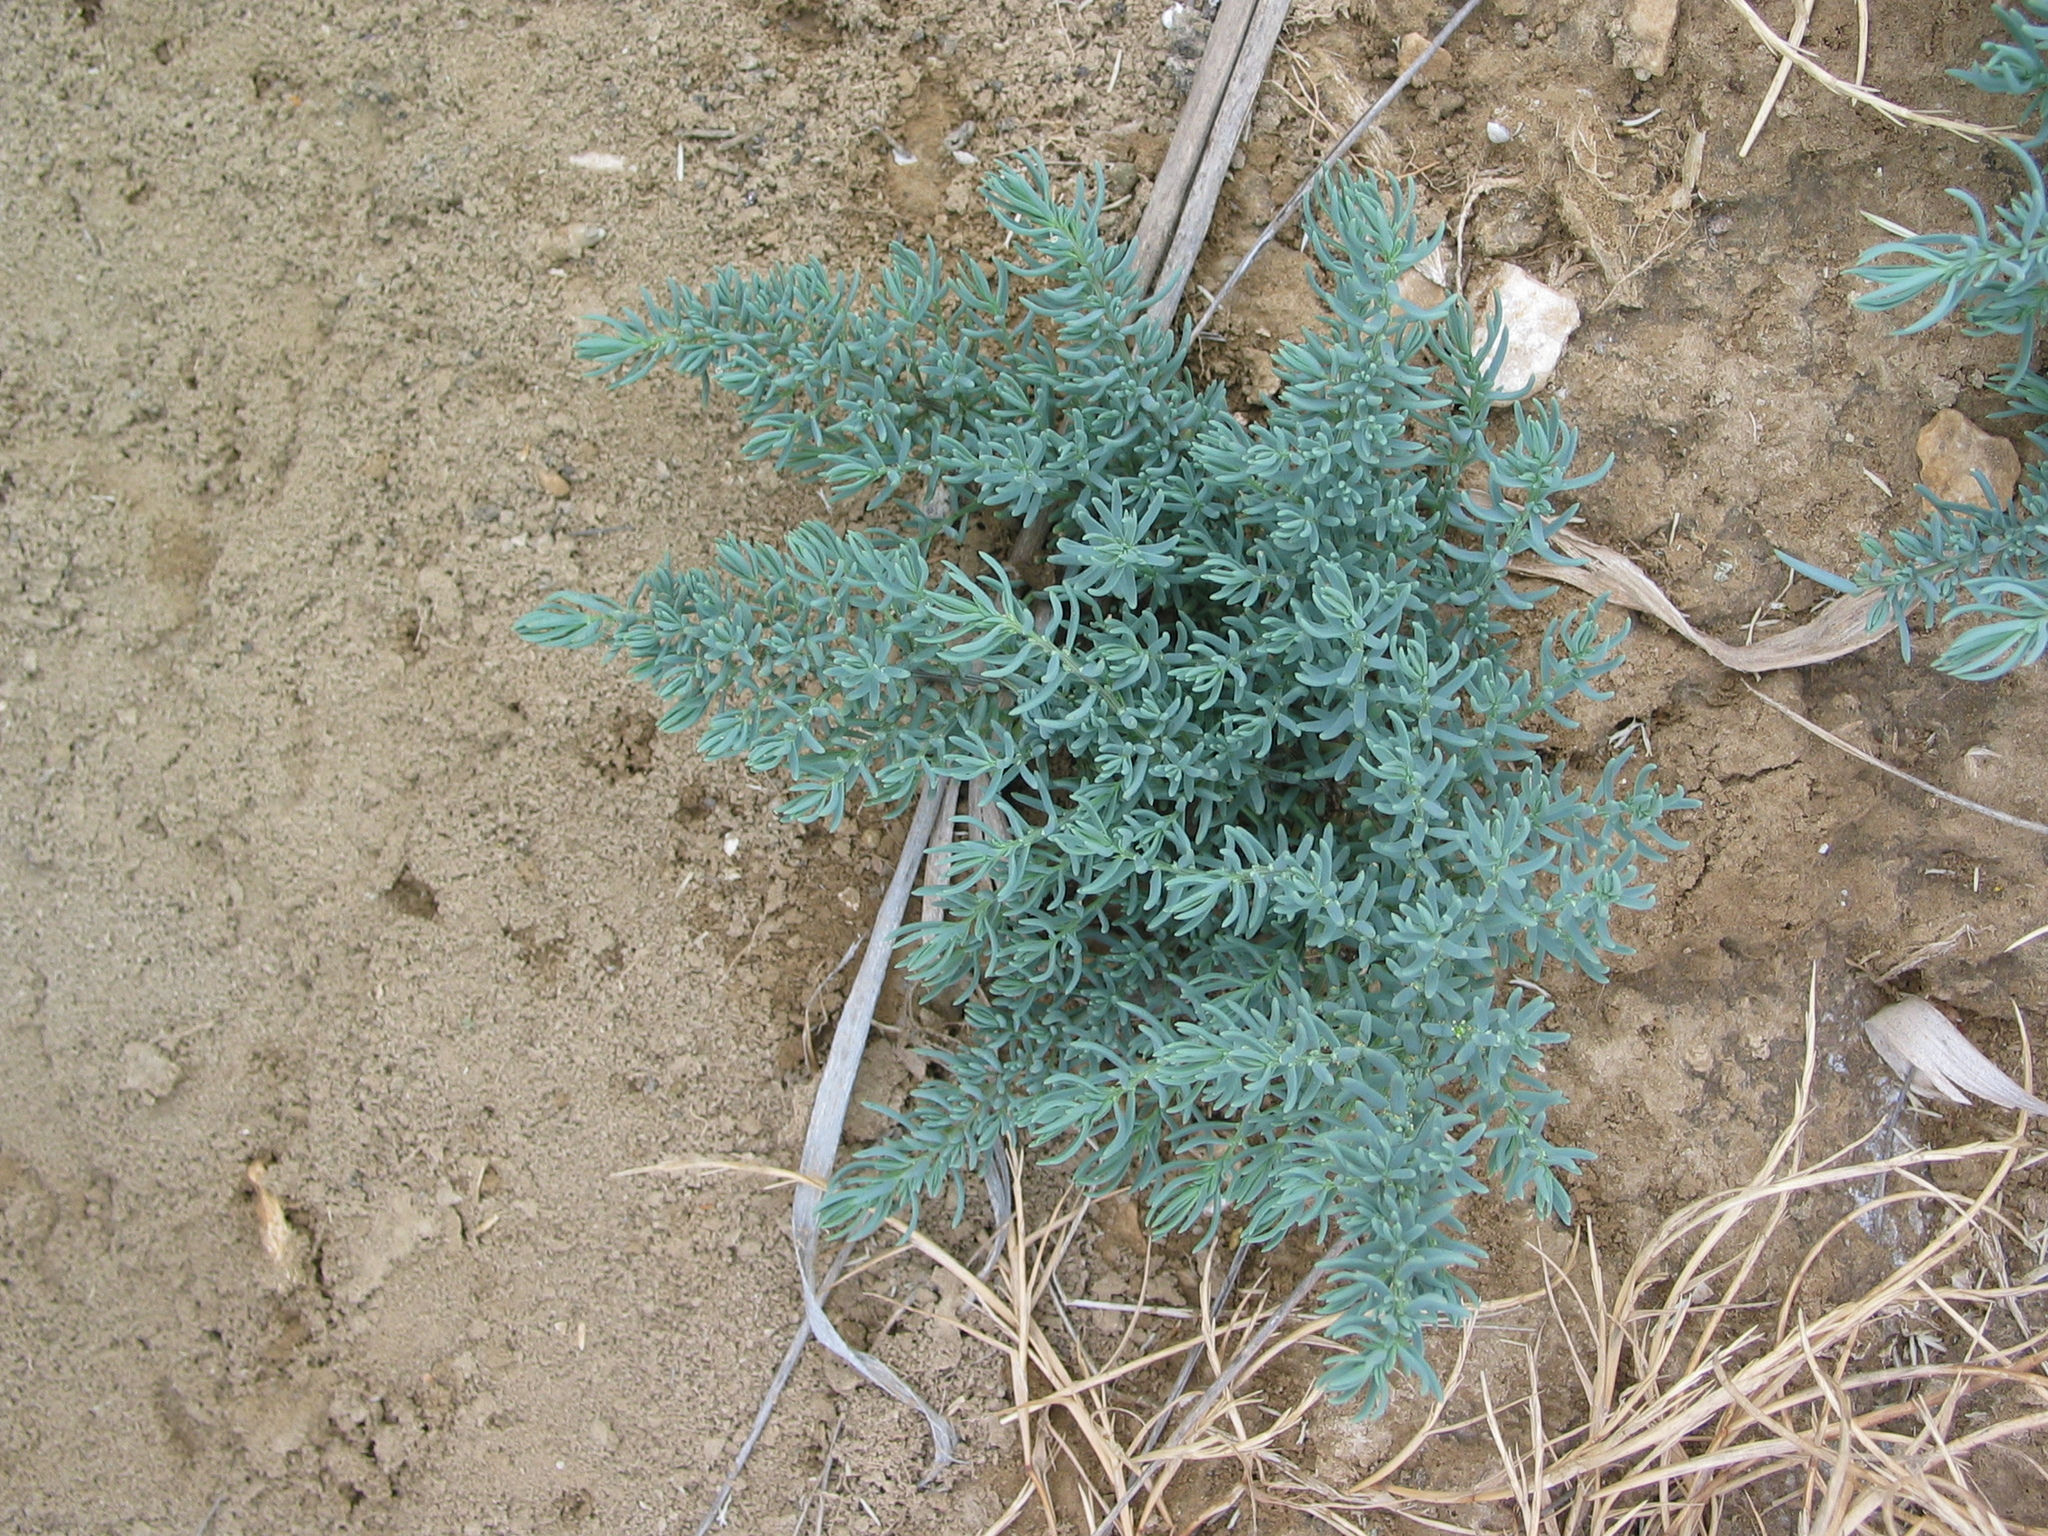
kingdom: Plantae
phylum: Tracheophyta
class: Magnoliopsida
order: Caryophyllales
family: Amaranthaceae
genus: Suaeda
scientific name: Suaeda maritima
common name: Annual sea-blite
